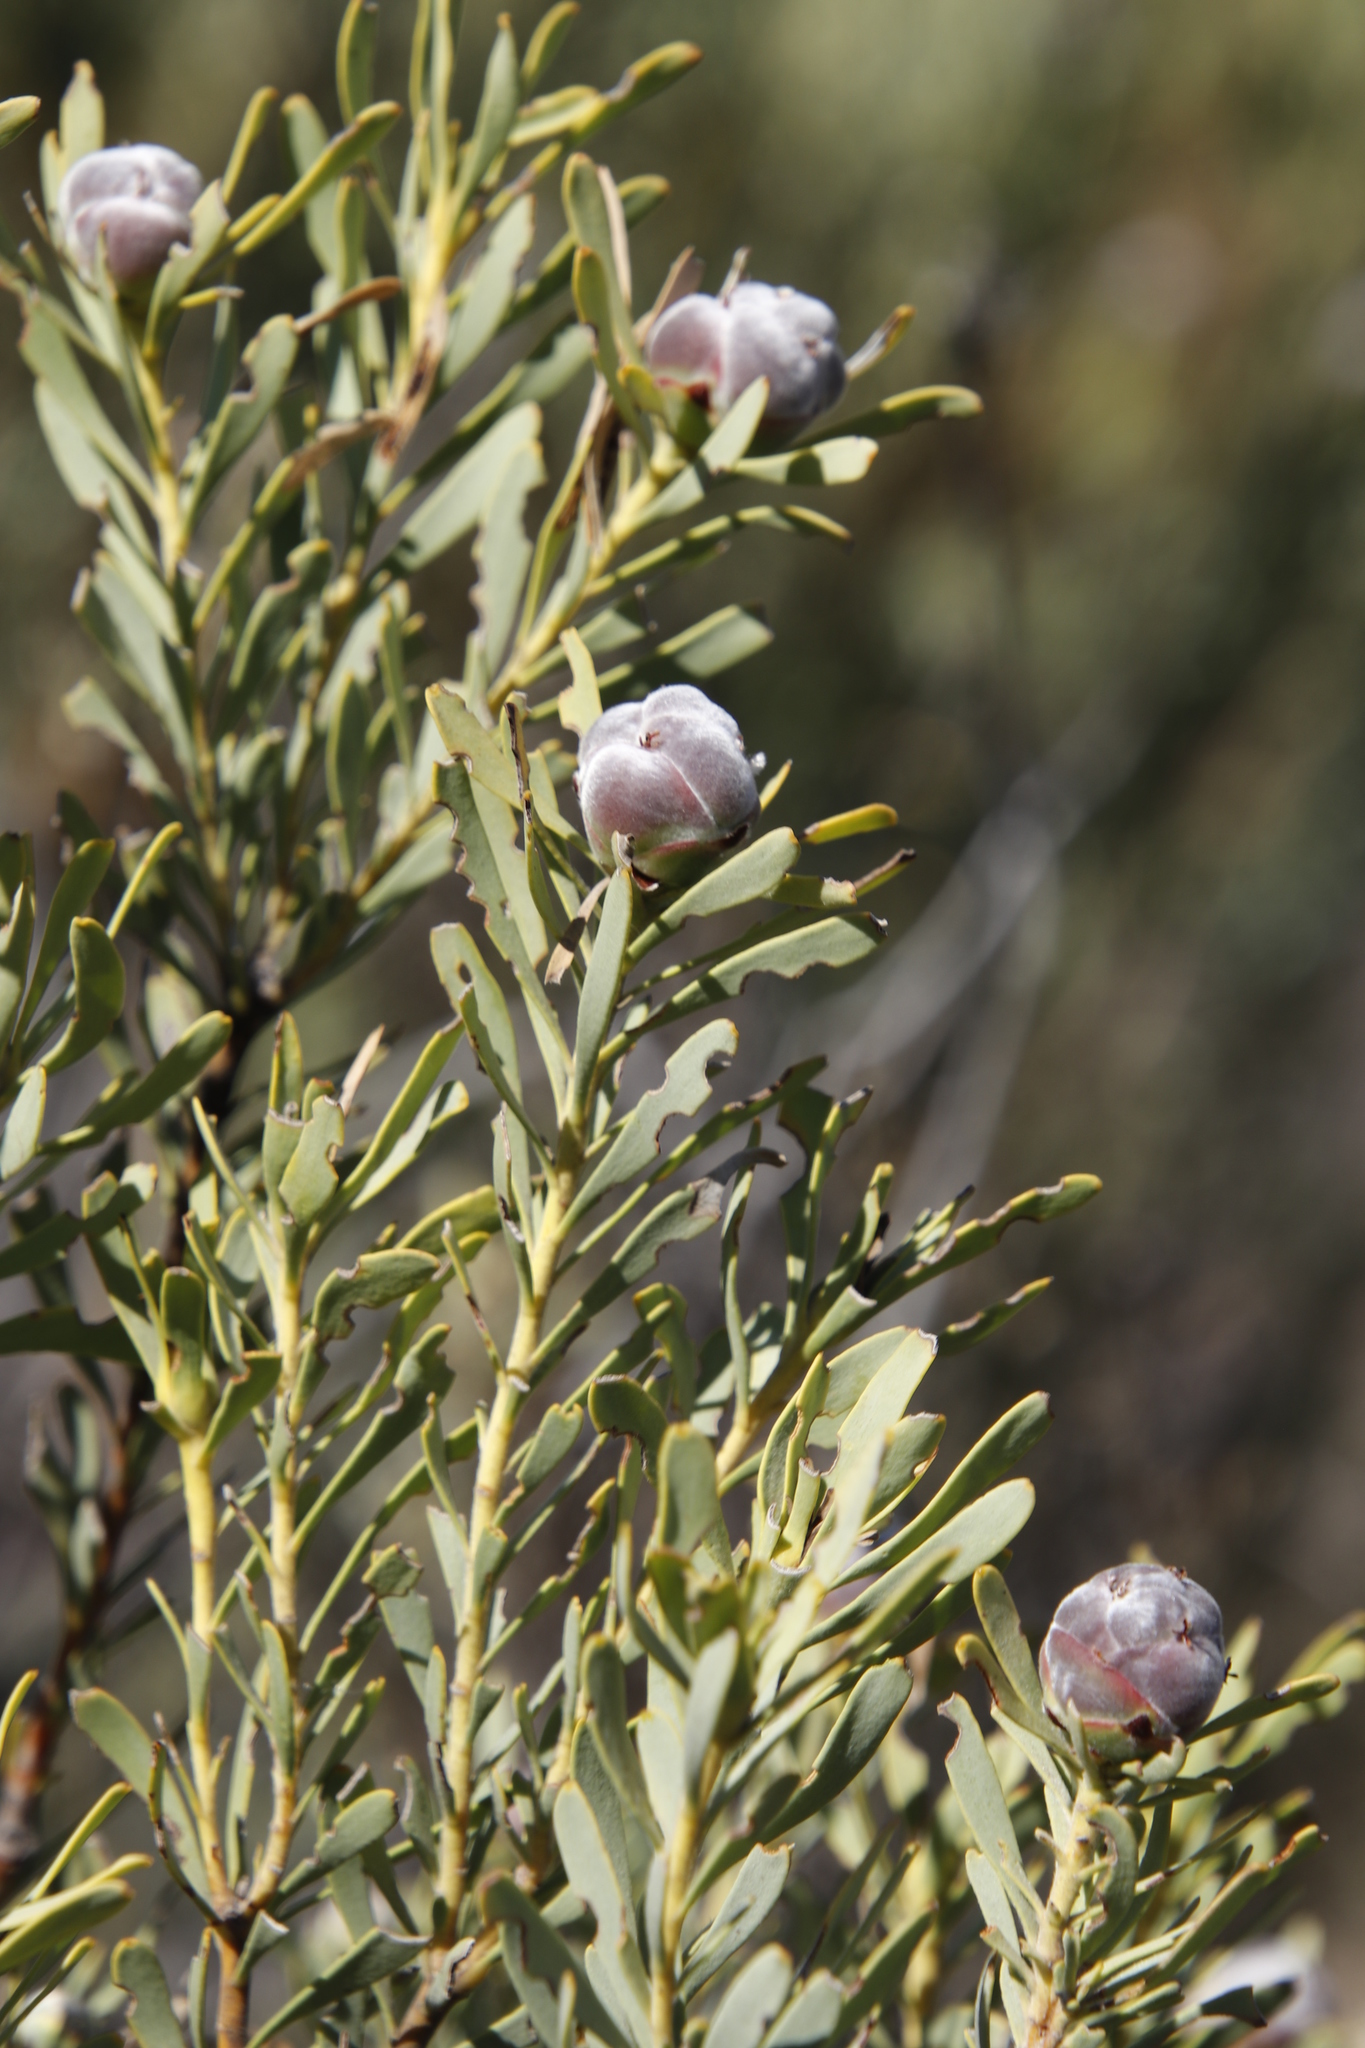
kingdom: Plantae
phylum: Tracheophyta
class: Magnoliopsida
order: Proteales
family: Proteaceae
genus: Leucadendron
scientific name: Leucadendron pubescens
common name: Grey conebush
